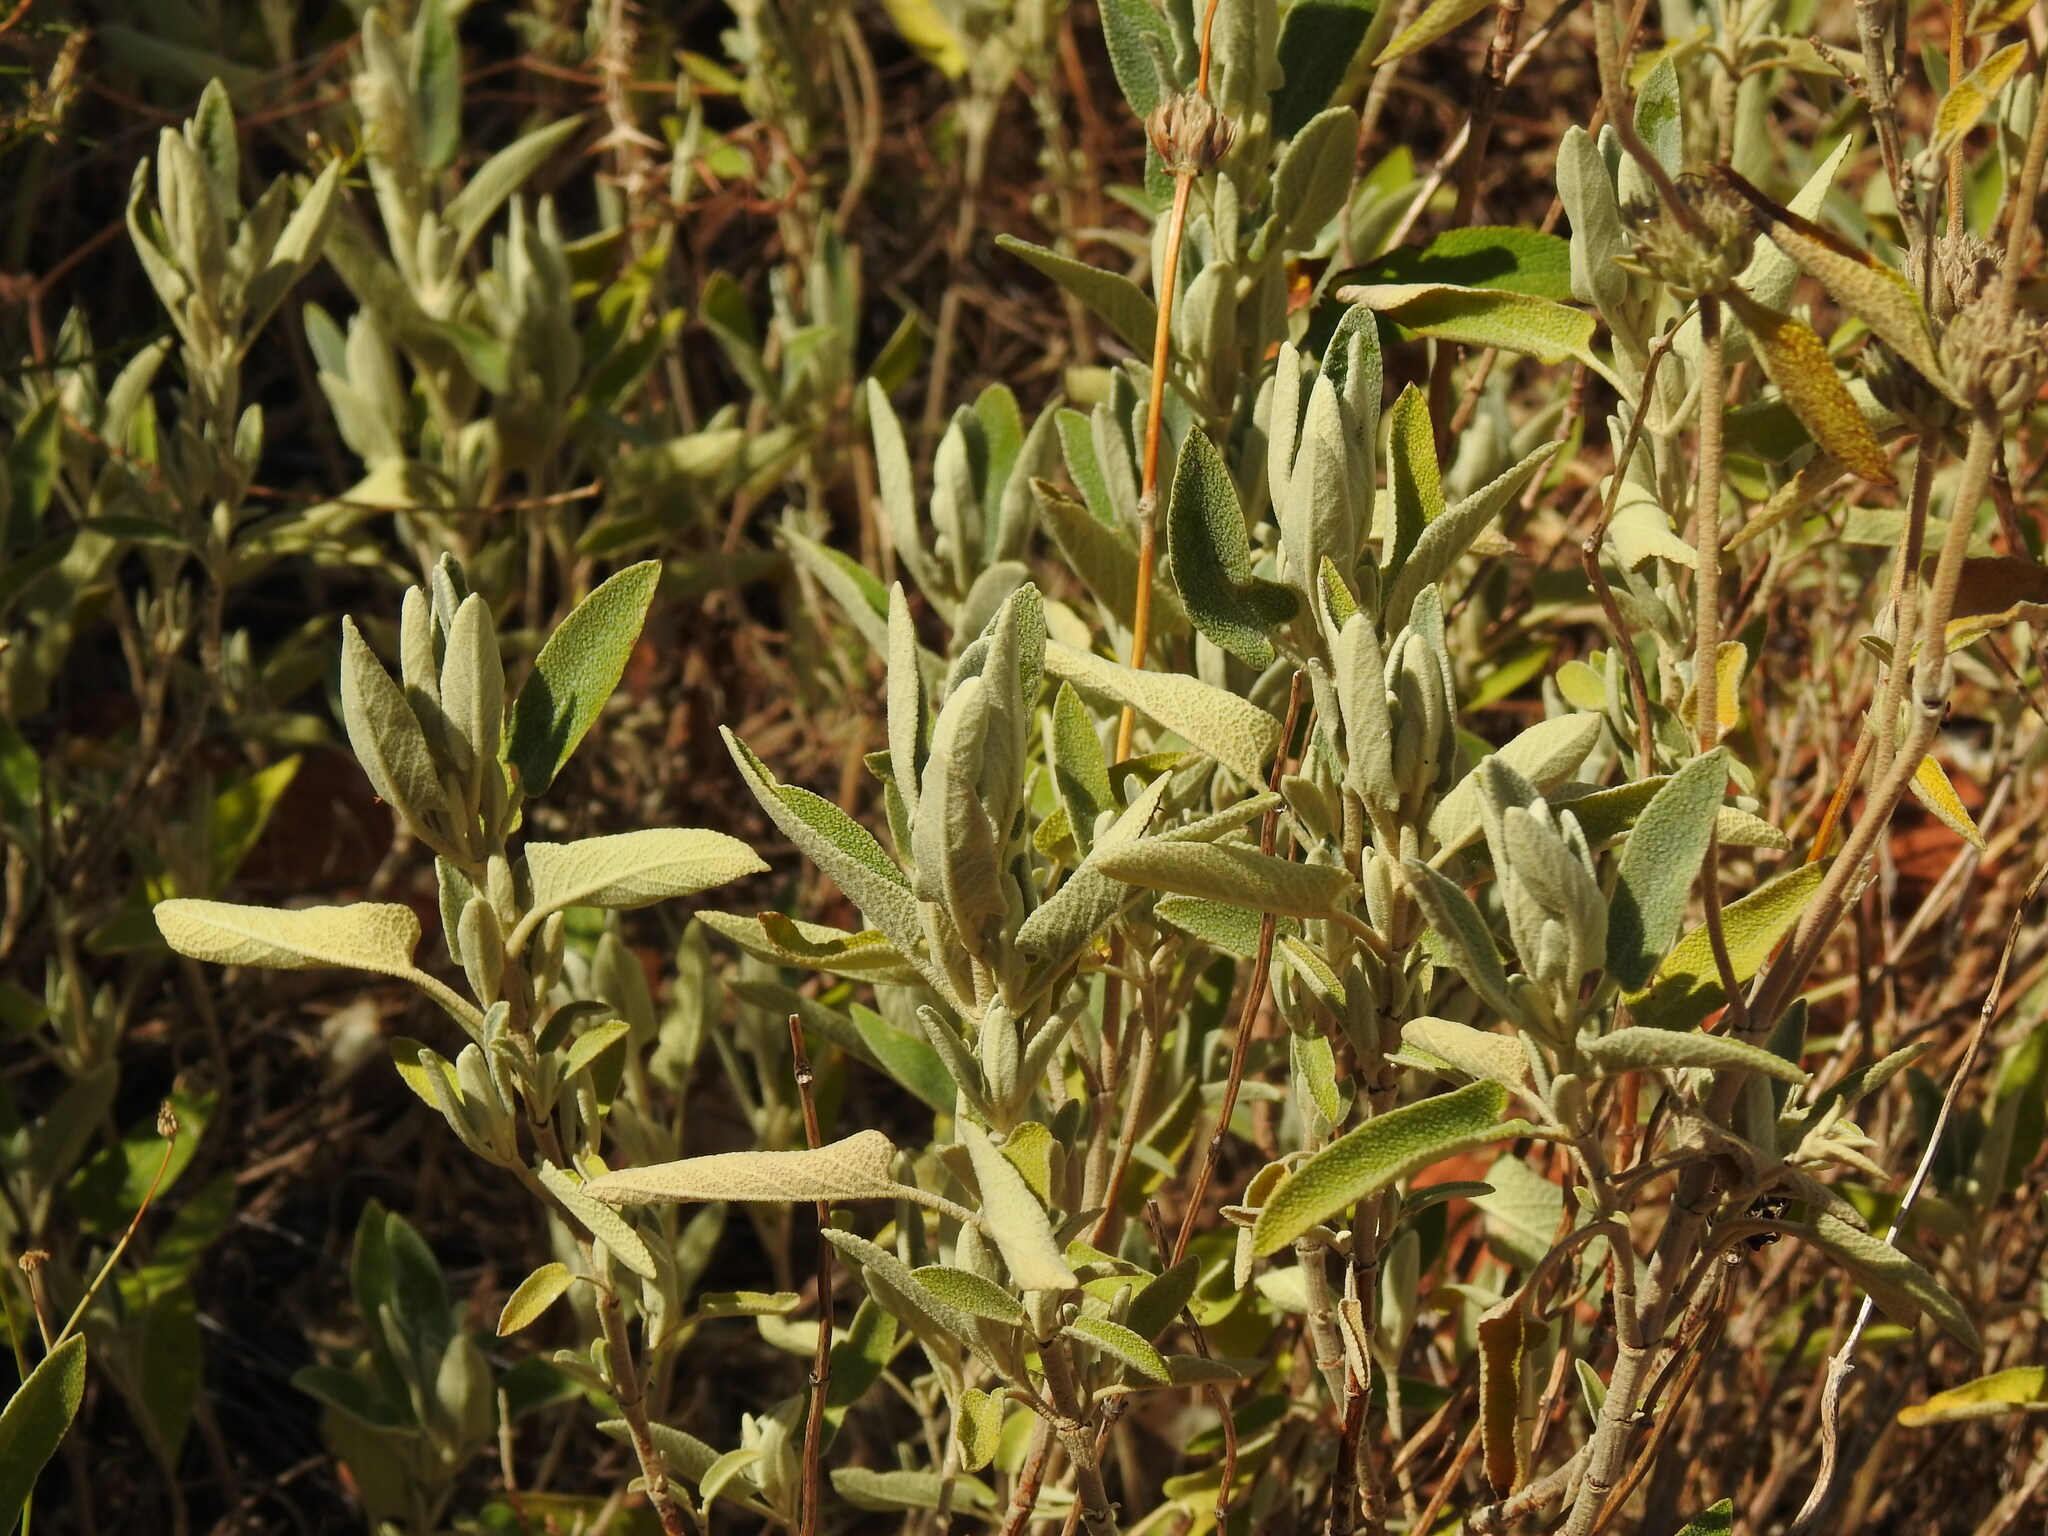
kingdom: Plantae
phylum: Tracheophyta
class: Magnoliopsida
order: Lamiales
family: Lamiaceae
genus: Phlomis
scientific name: Phlomis purpurea
